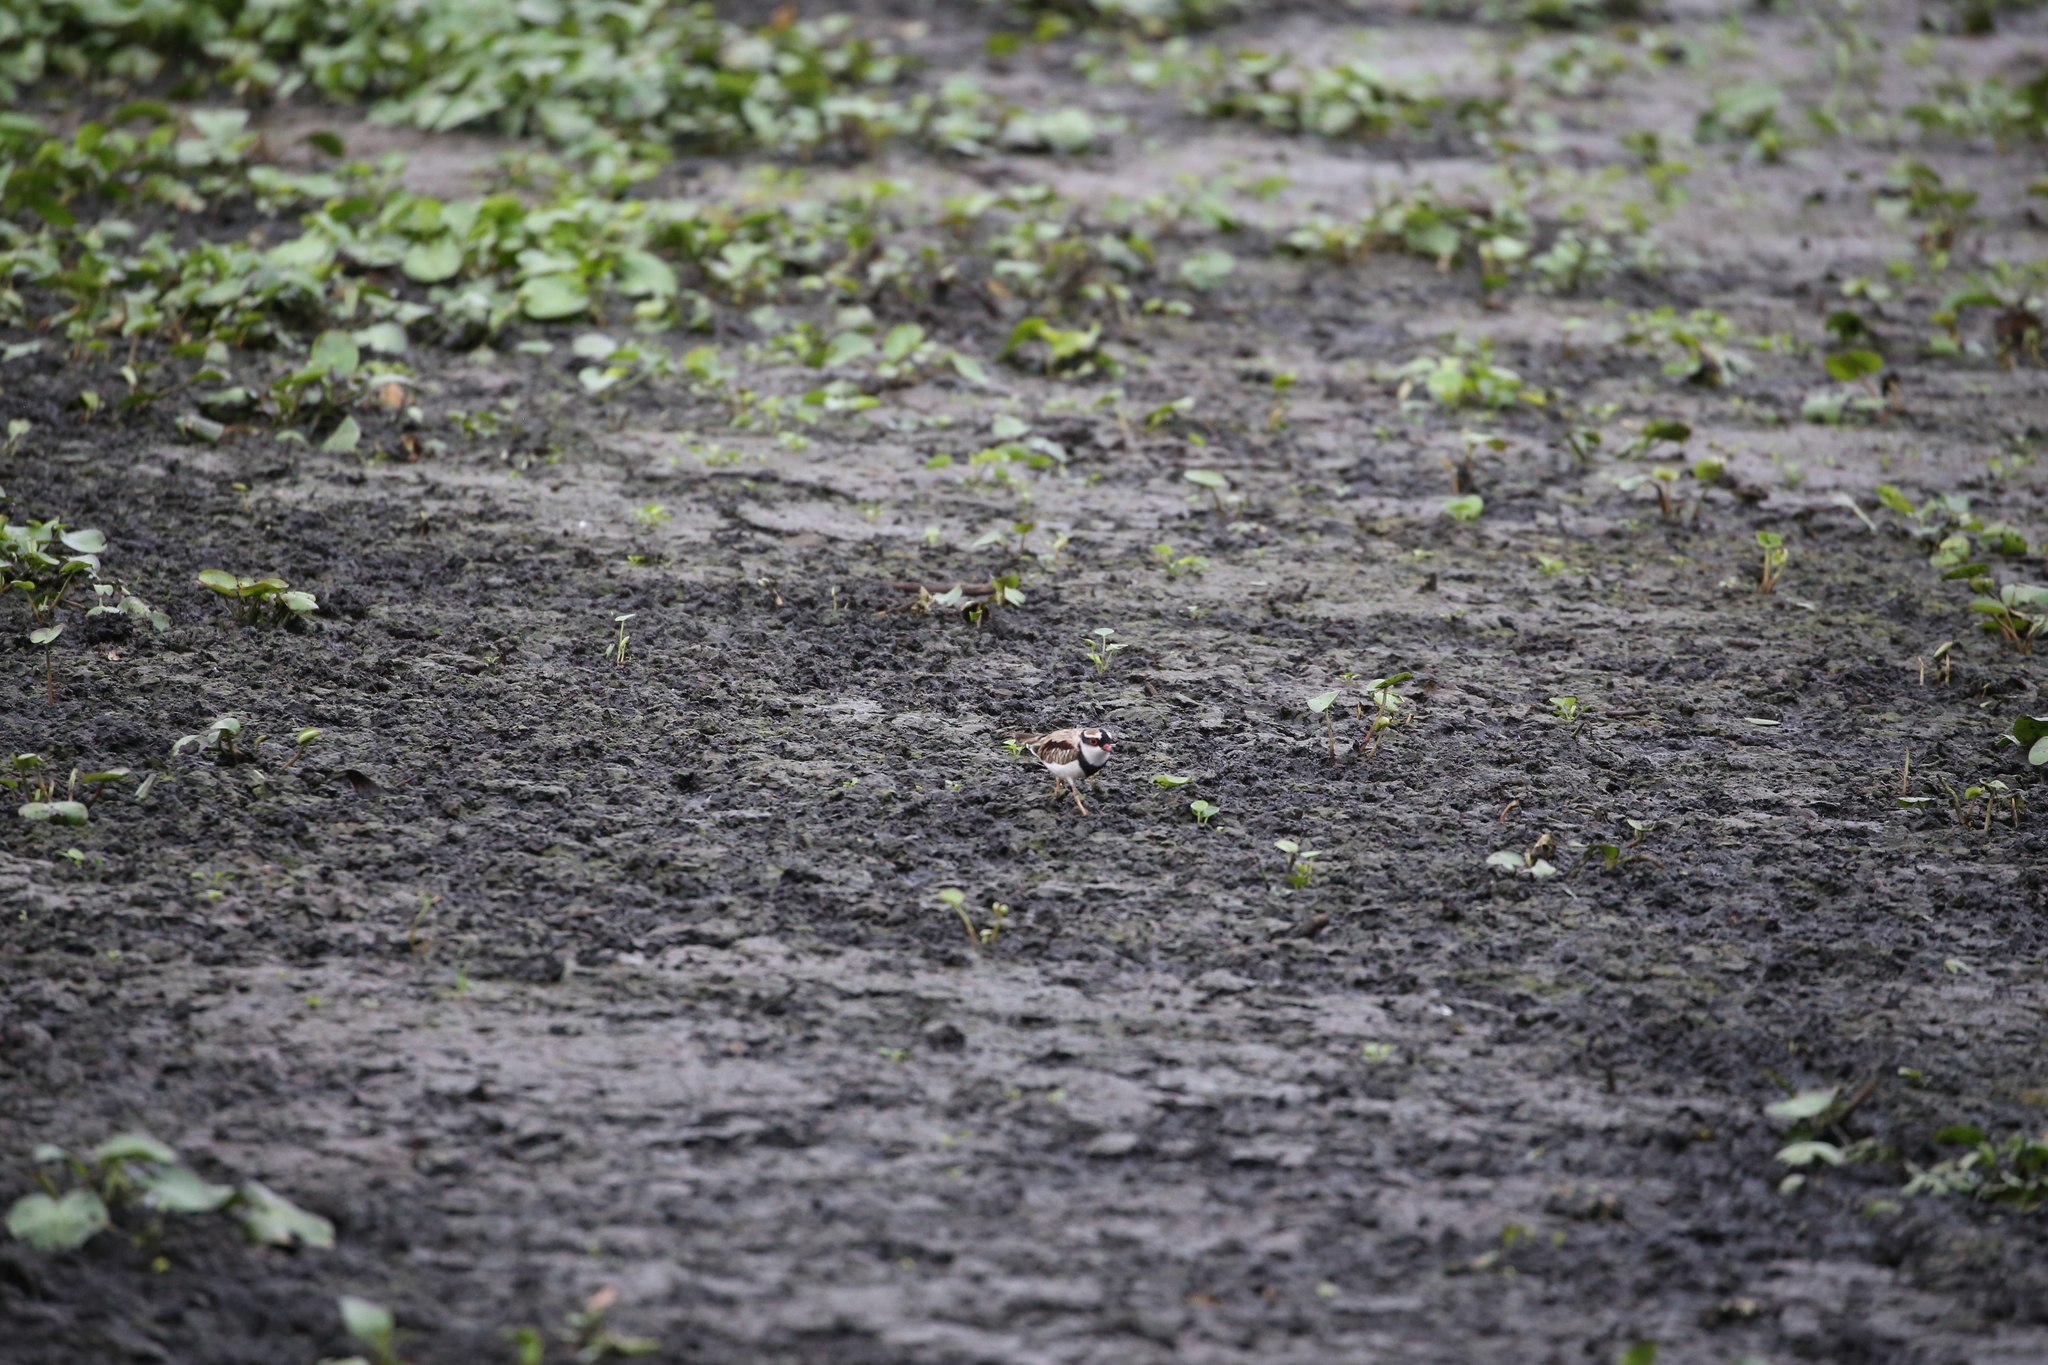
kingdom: Animalia
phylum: Chordata
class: Aves
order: Charadriiformes
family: Charadriidae
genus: Elseyornis
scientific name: Elseyornis melanops
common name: Black-fronted dotterel
